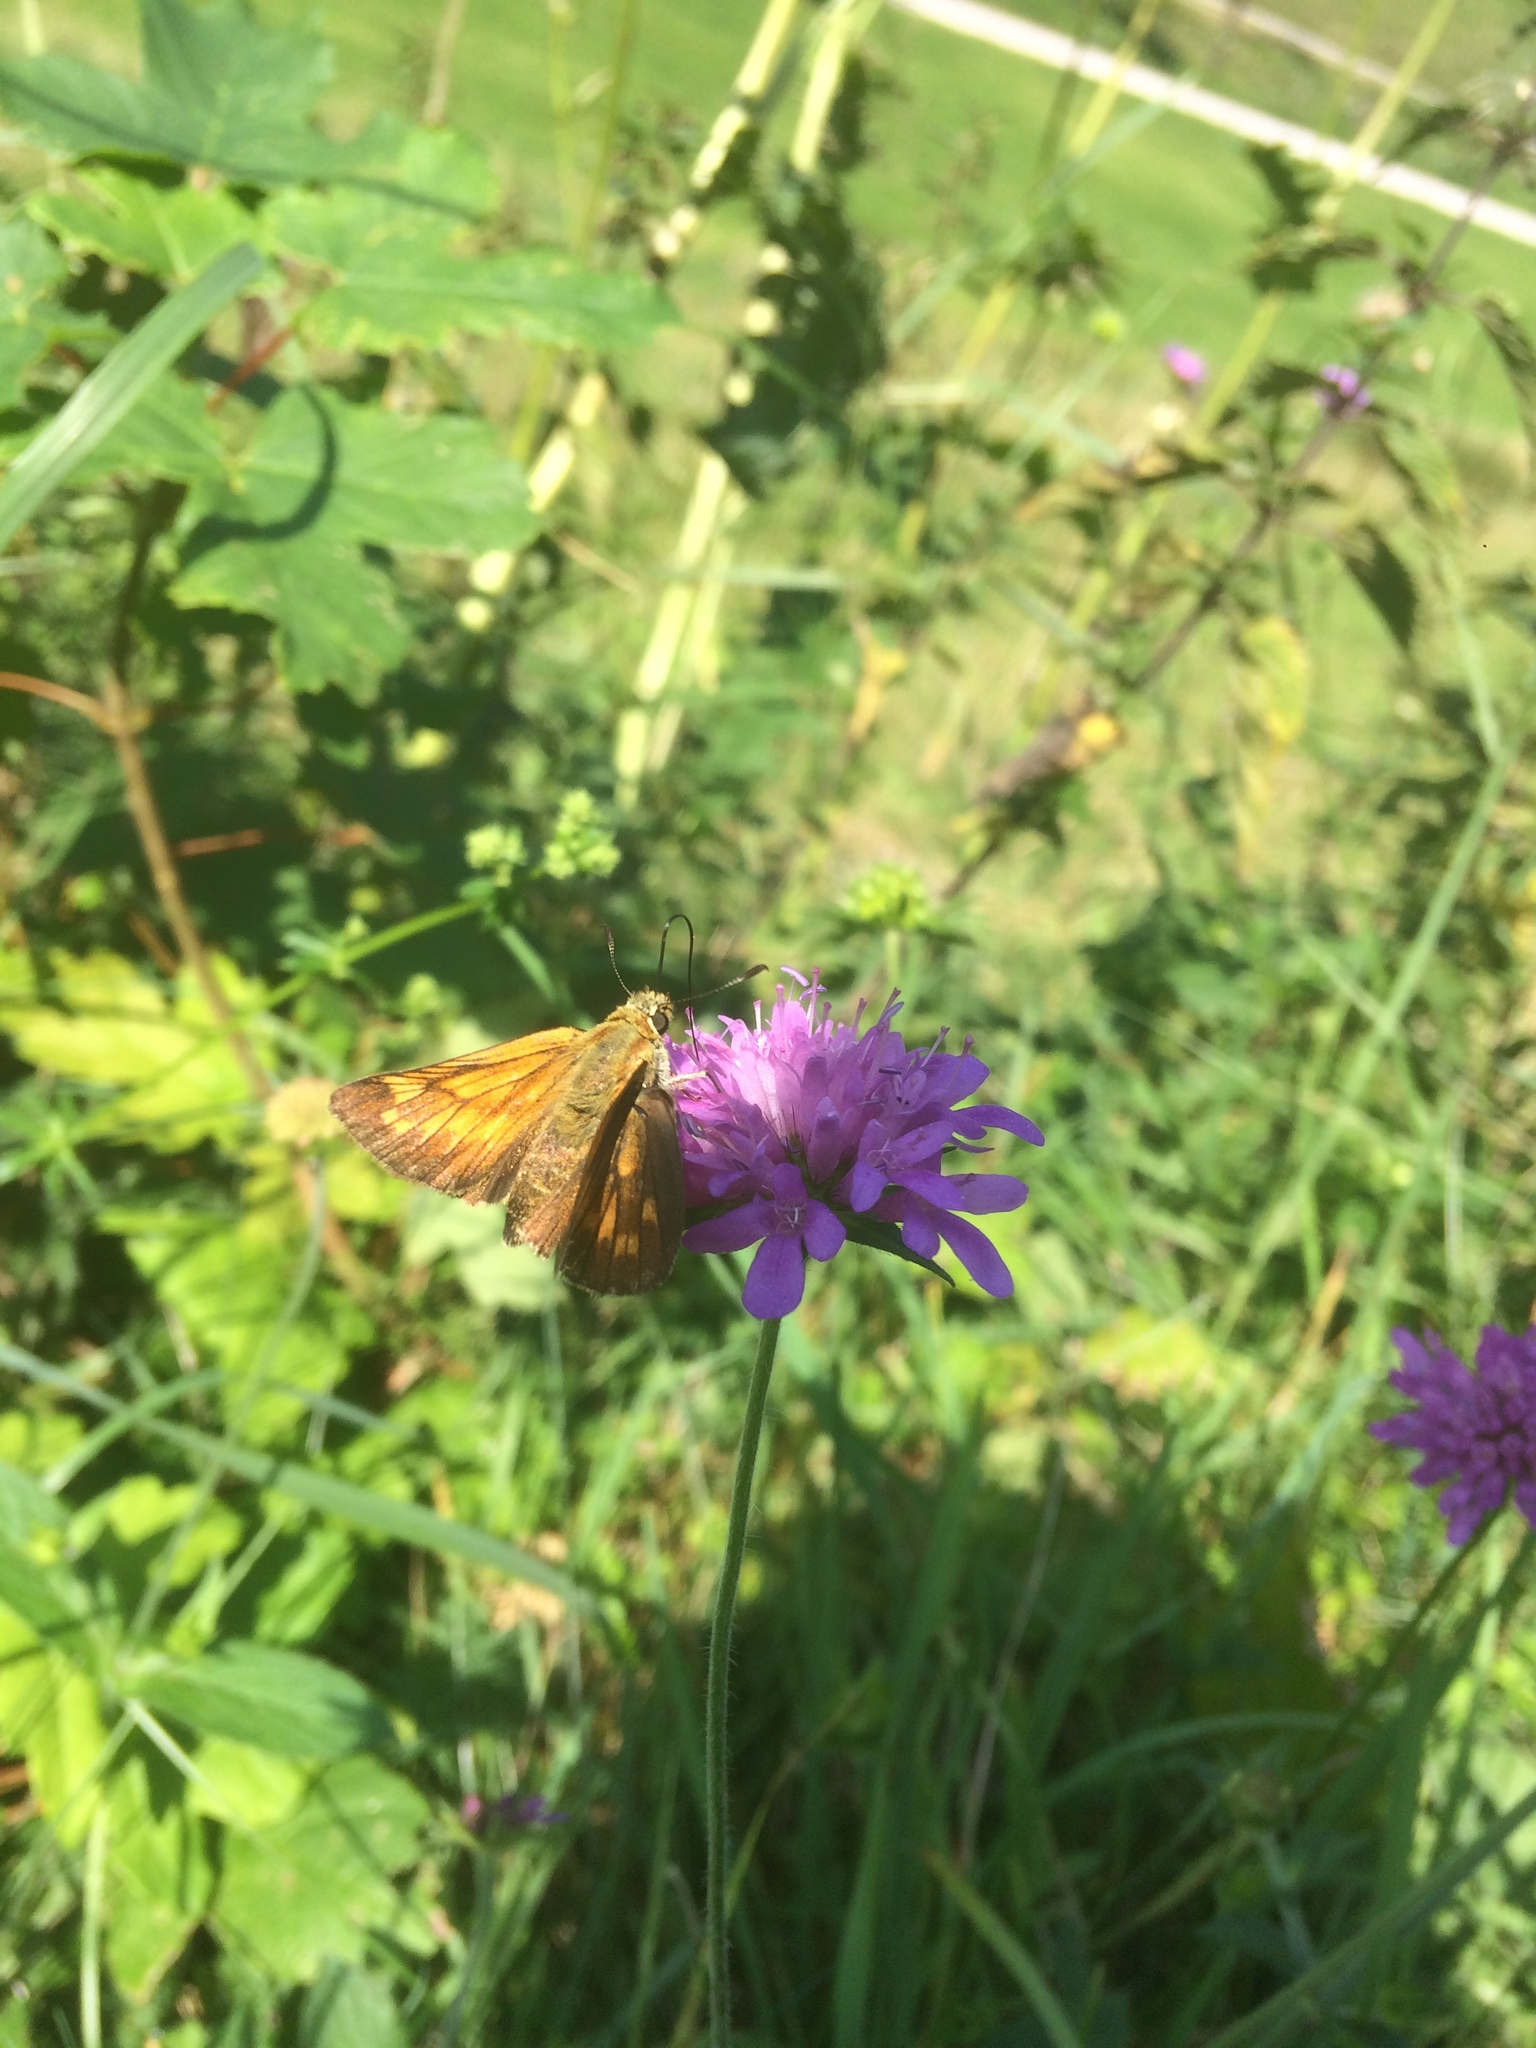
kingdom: Animalia
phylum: Arthropoda
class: Insecta
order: Lepidoptera
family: Hesperiidae
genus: Ochlodes
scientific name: Ochlodes venata
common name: Large skipper
